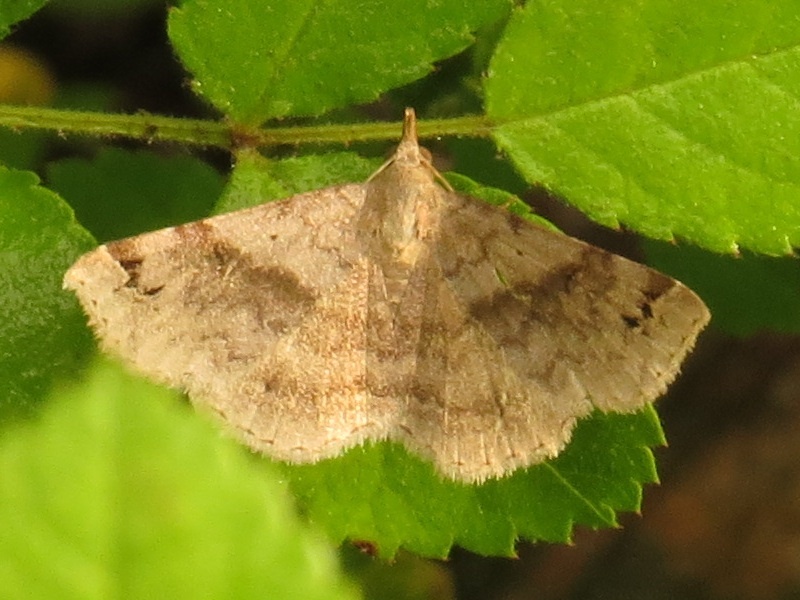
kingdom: Animalia
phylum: Arthropoda
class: Insecta
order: Lepidoptera
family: Erebidae
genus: Spargaloma
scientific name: Spargaloma sexpunctata
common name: Six-spotted gray
